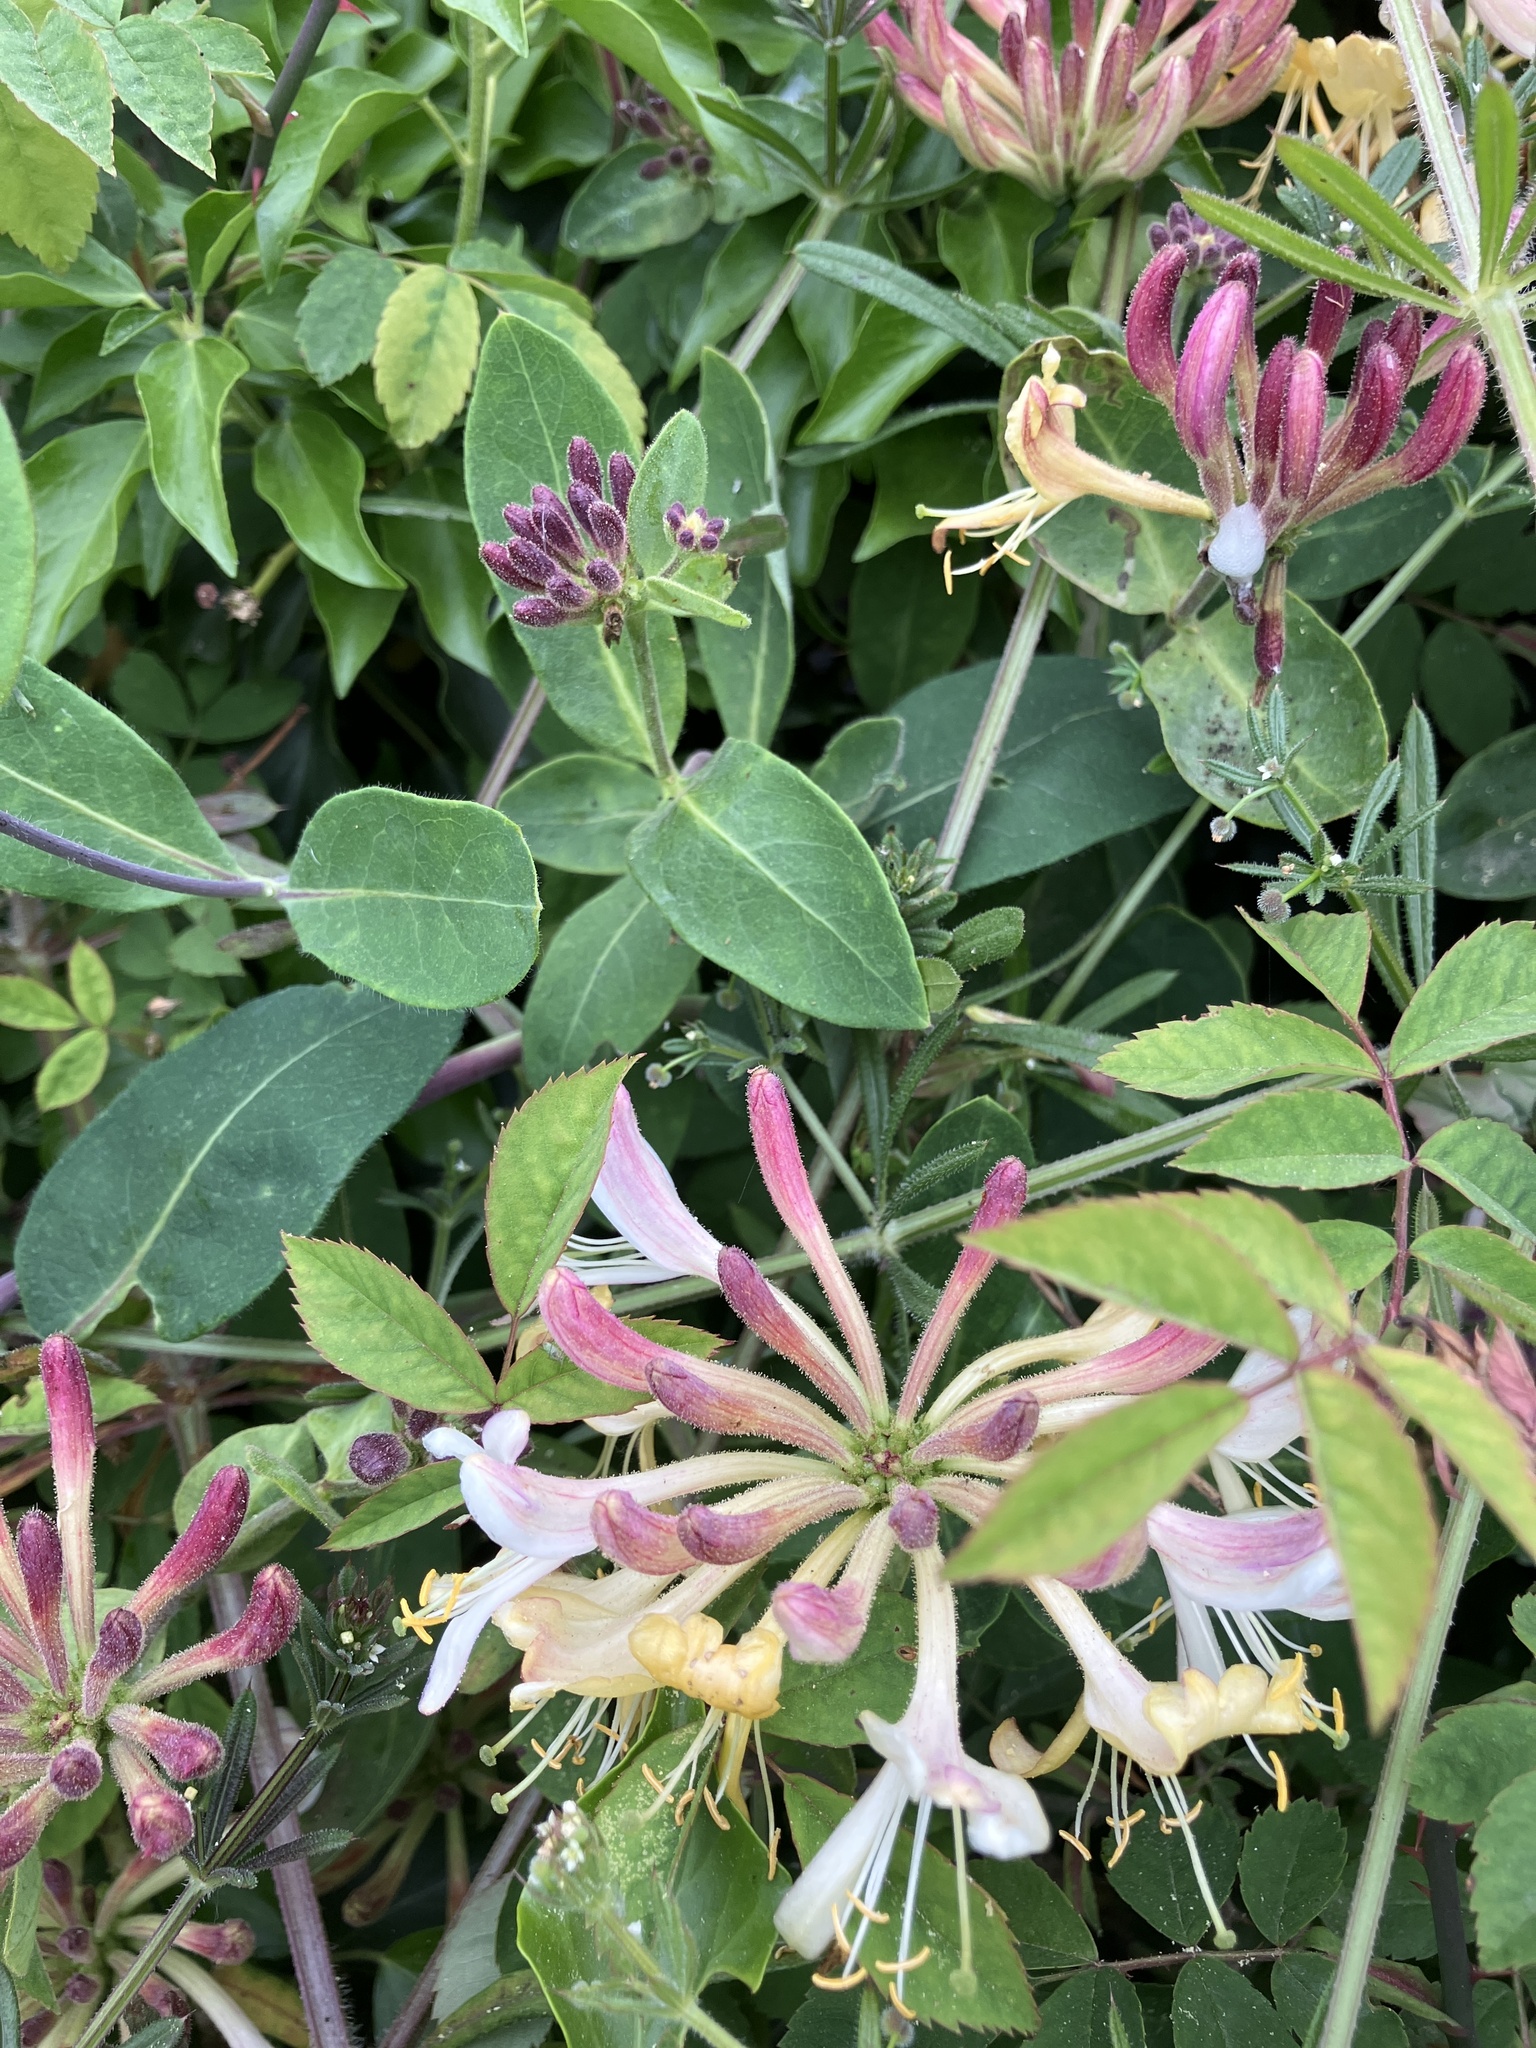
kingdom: Plantae
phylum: Tracheophyta
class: Magnoliopsida
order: Dipsacales
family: Caprifoliaceae
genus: Lonicera
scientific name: Lonicera periclymenum
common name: European honeysuckle
